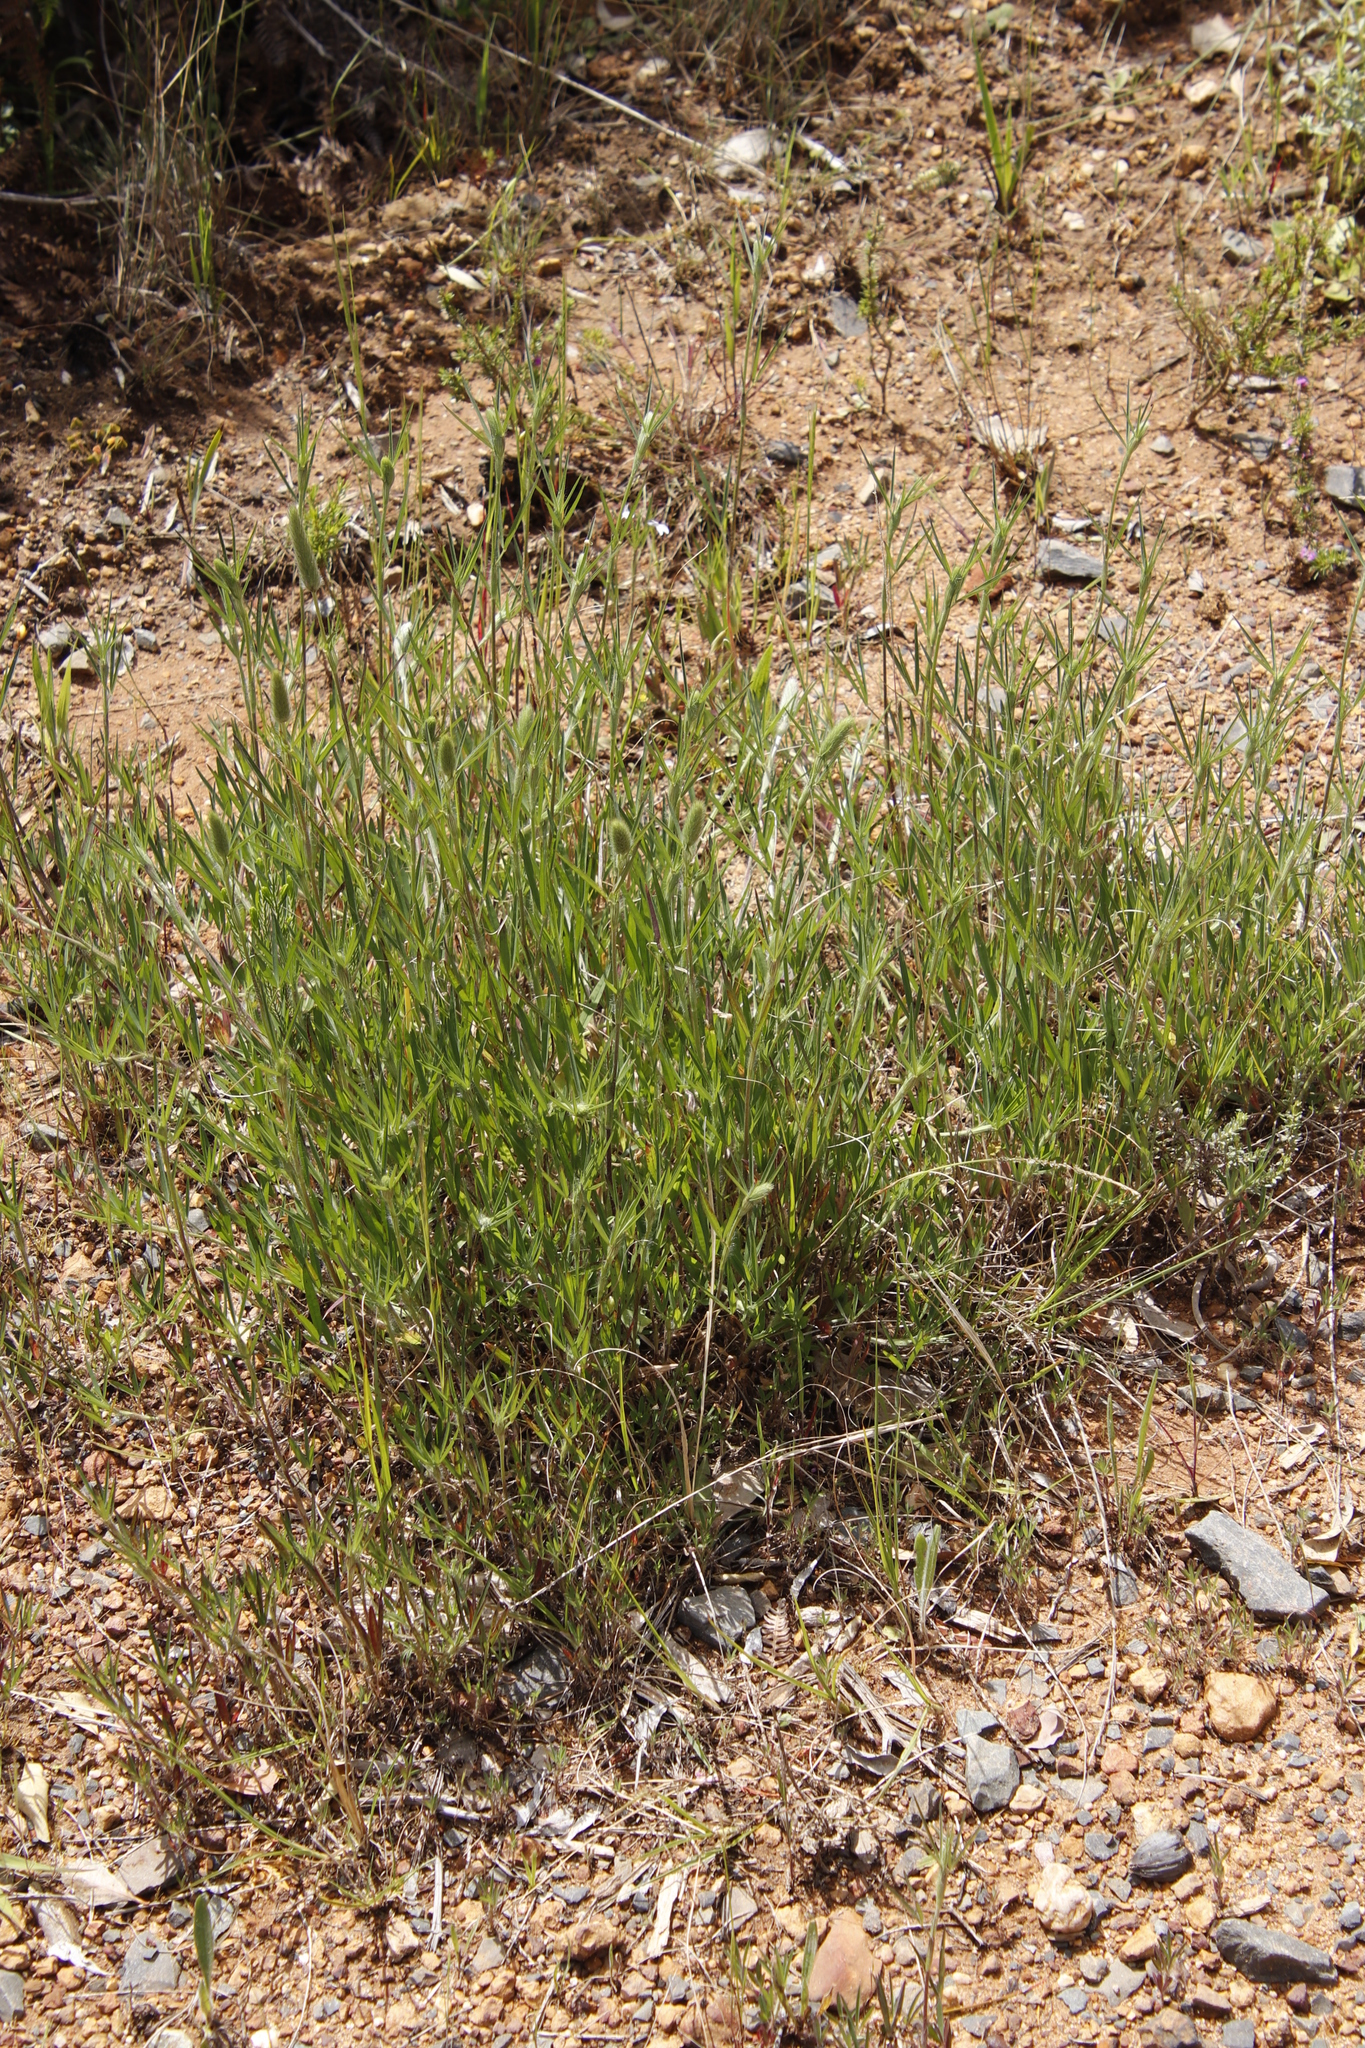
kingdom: Plantae
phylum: Tracheophyta
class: Magnoliopsida
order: Fabales
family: Fabaceae
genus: Trifolium
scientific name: Trifolium angustifolium
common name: Narrow clover
